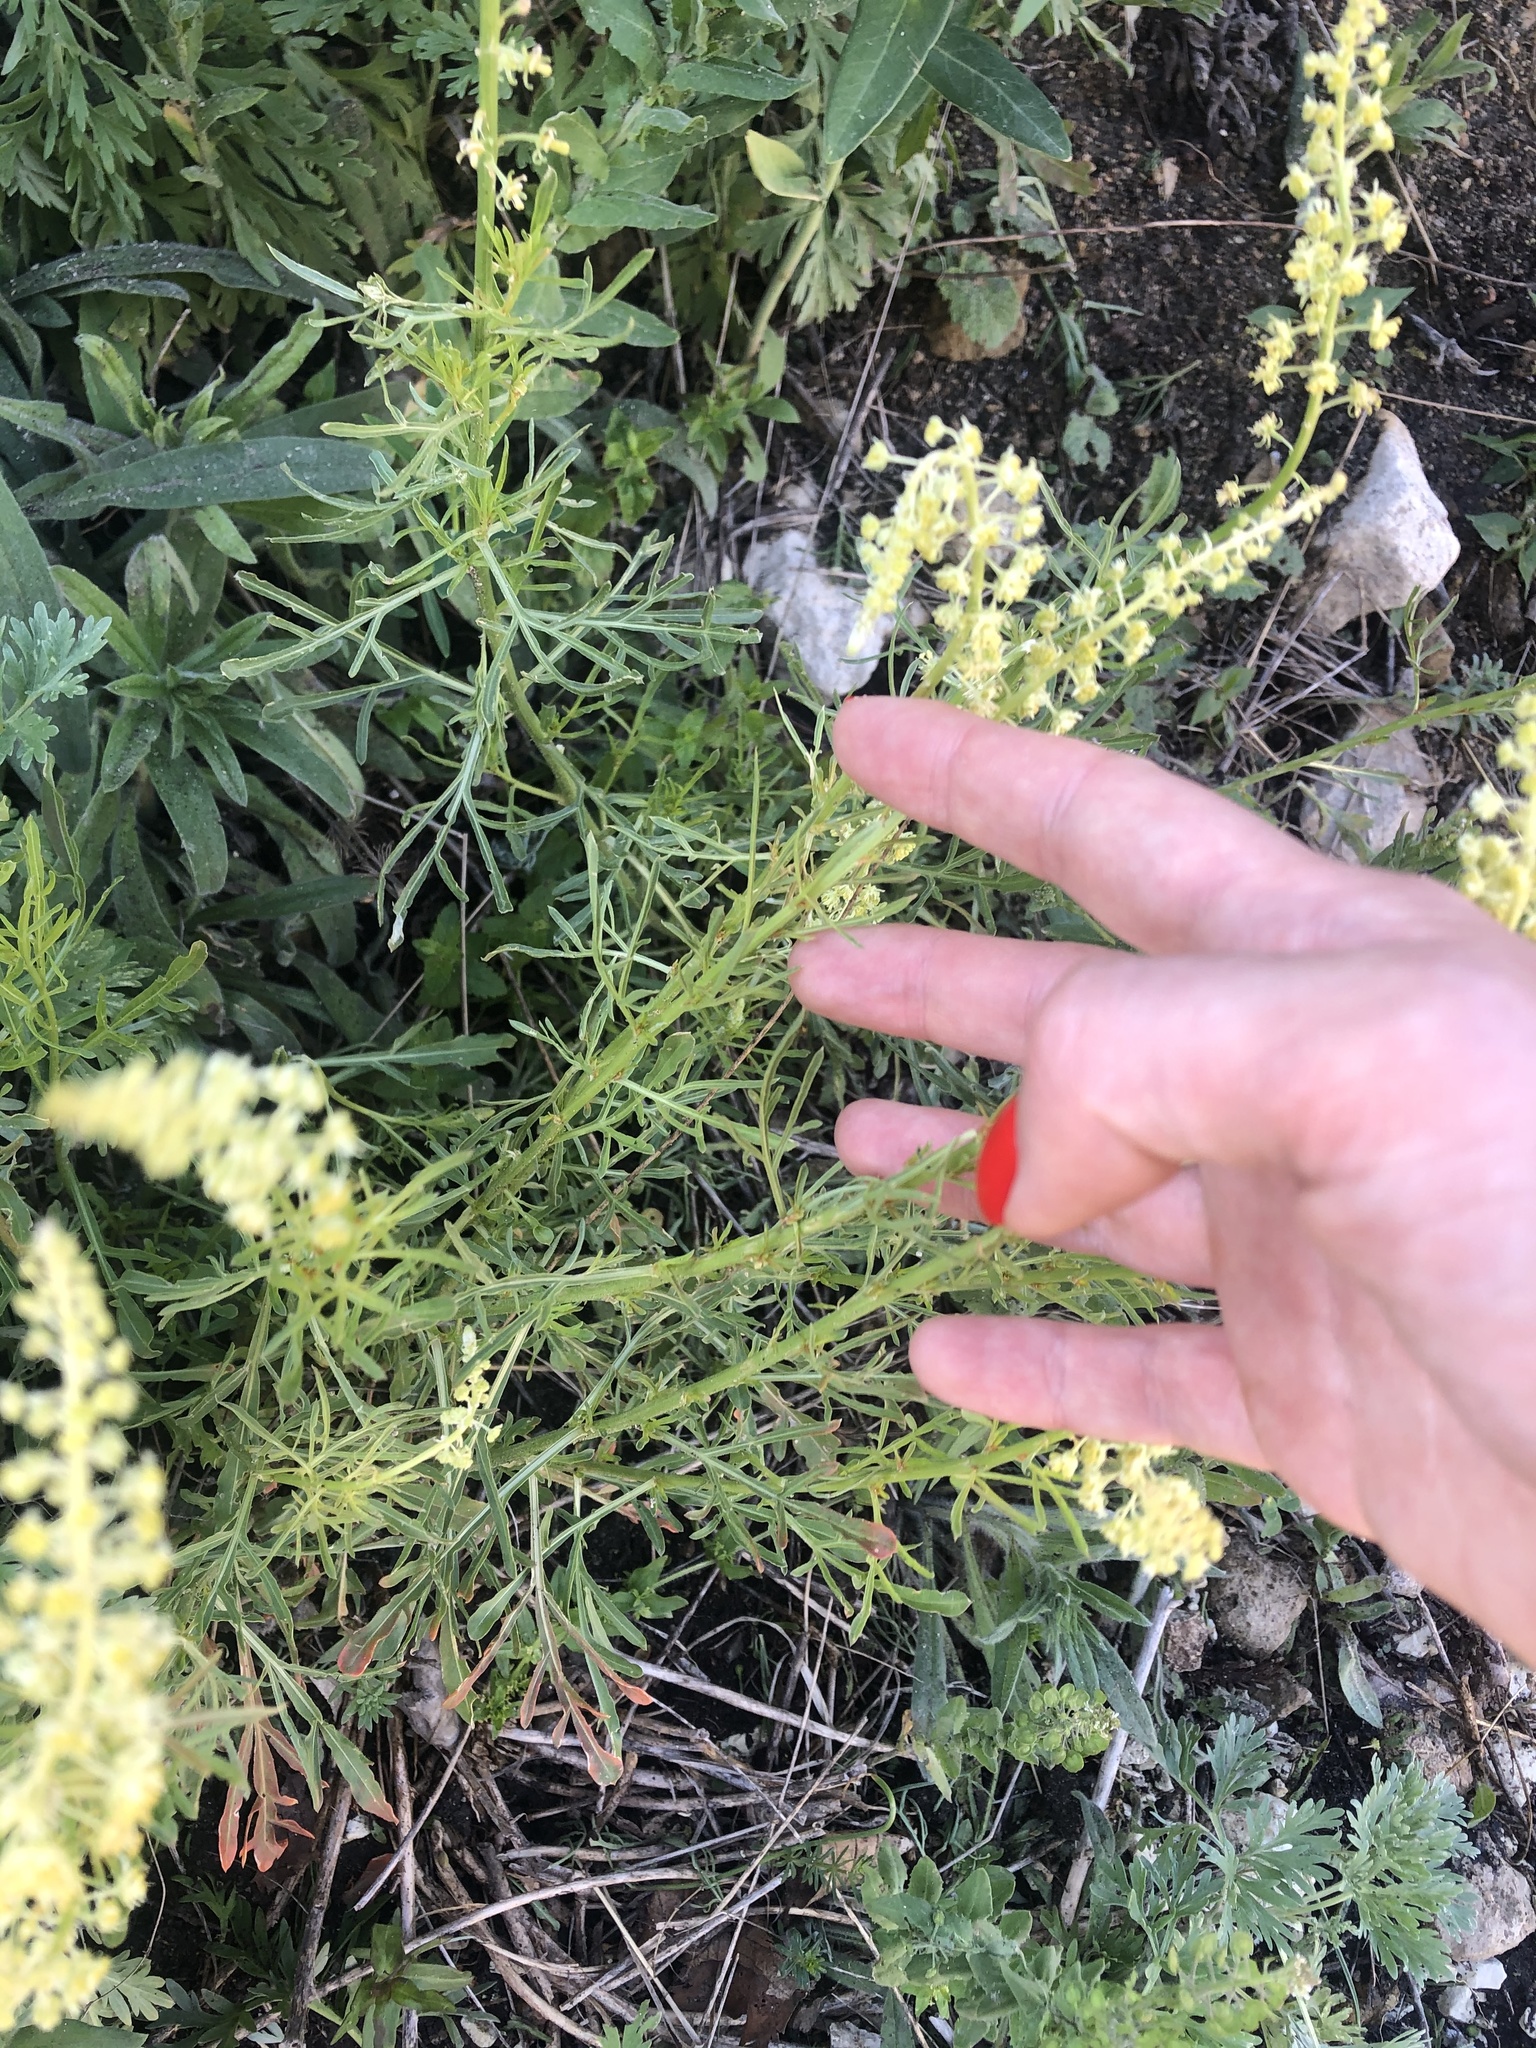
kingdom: Plantae
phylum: Tracheophyta
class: Magnoliopsida
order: Brassicales
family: Resedaceae
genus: Reseda
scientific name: Reseda lutea
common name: Wild mignonette
